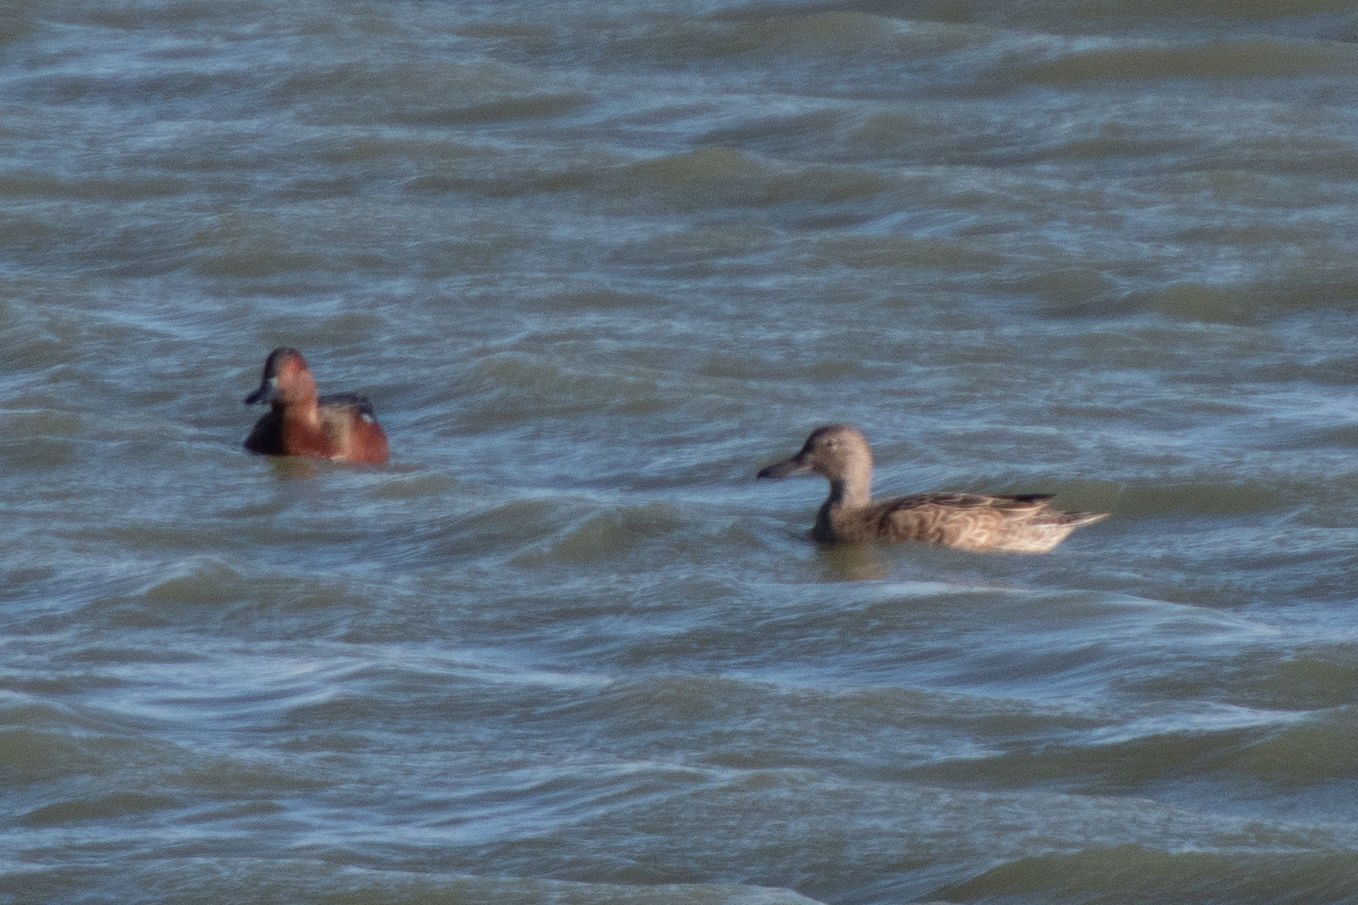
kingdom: Animalia
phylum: Chordata
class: Aves
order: Anseriformes
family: Anatidae
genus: Spatula
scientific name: Spatula cyanoptera
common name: Cinnamon teal
